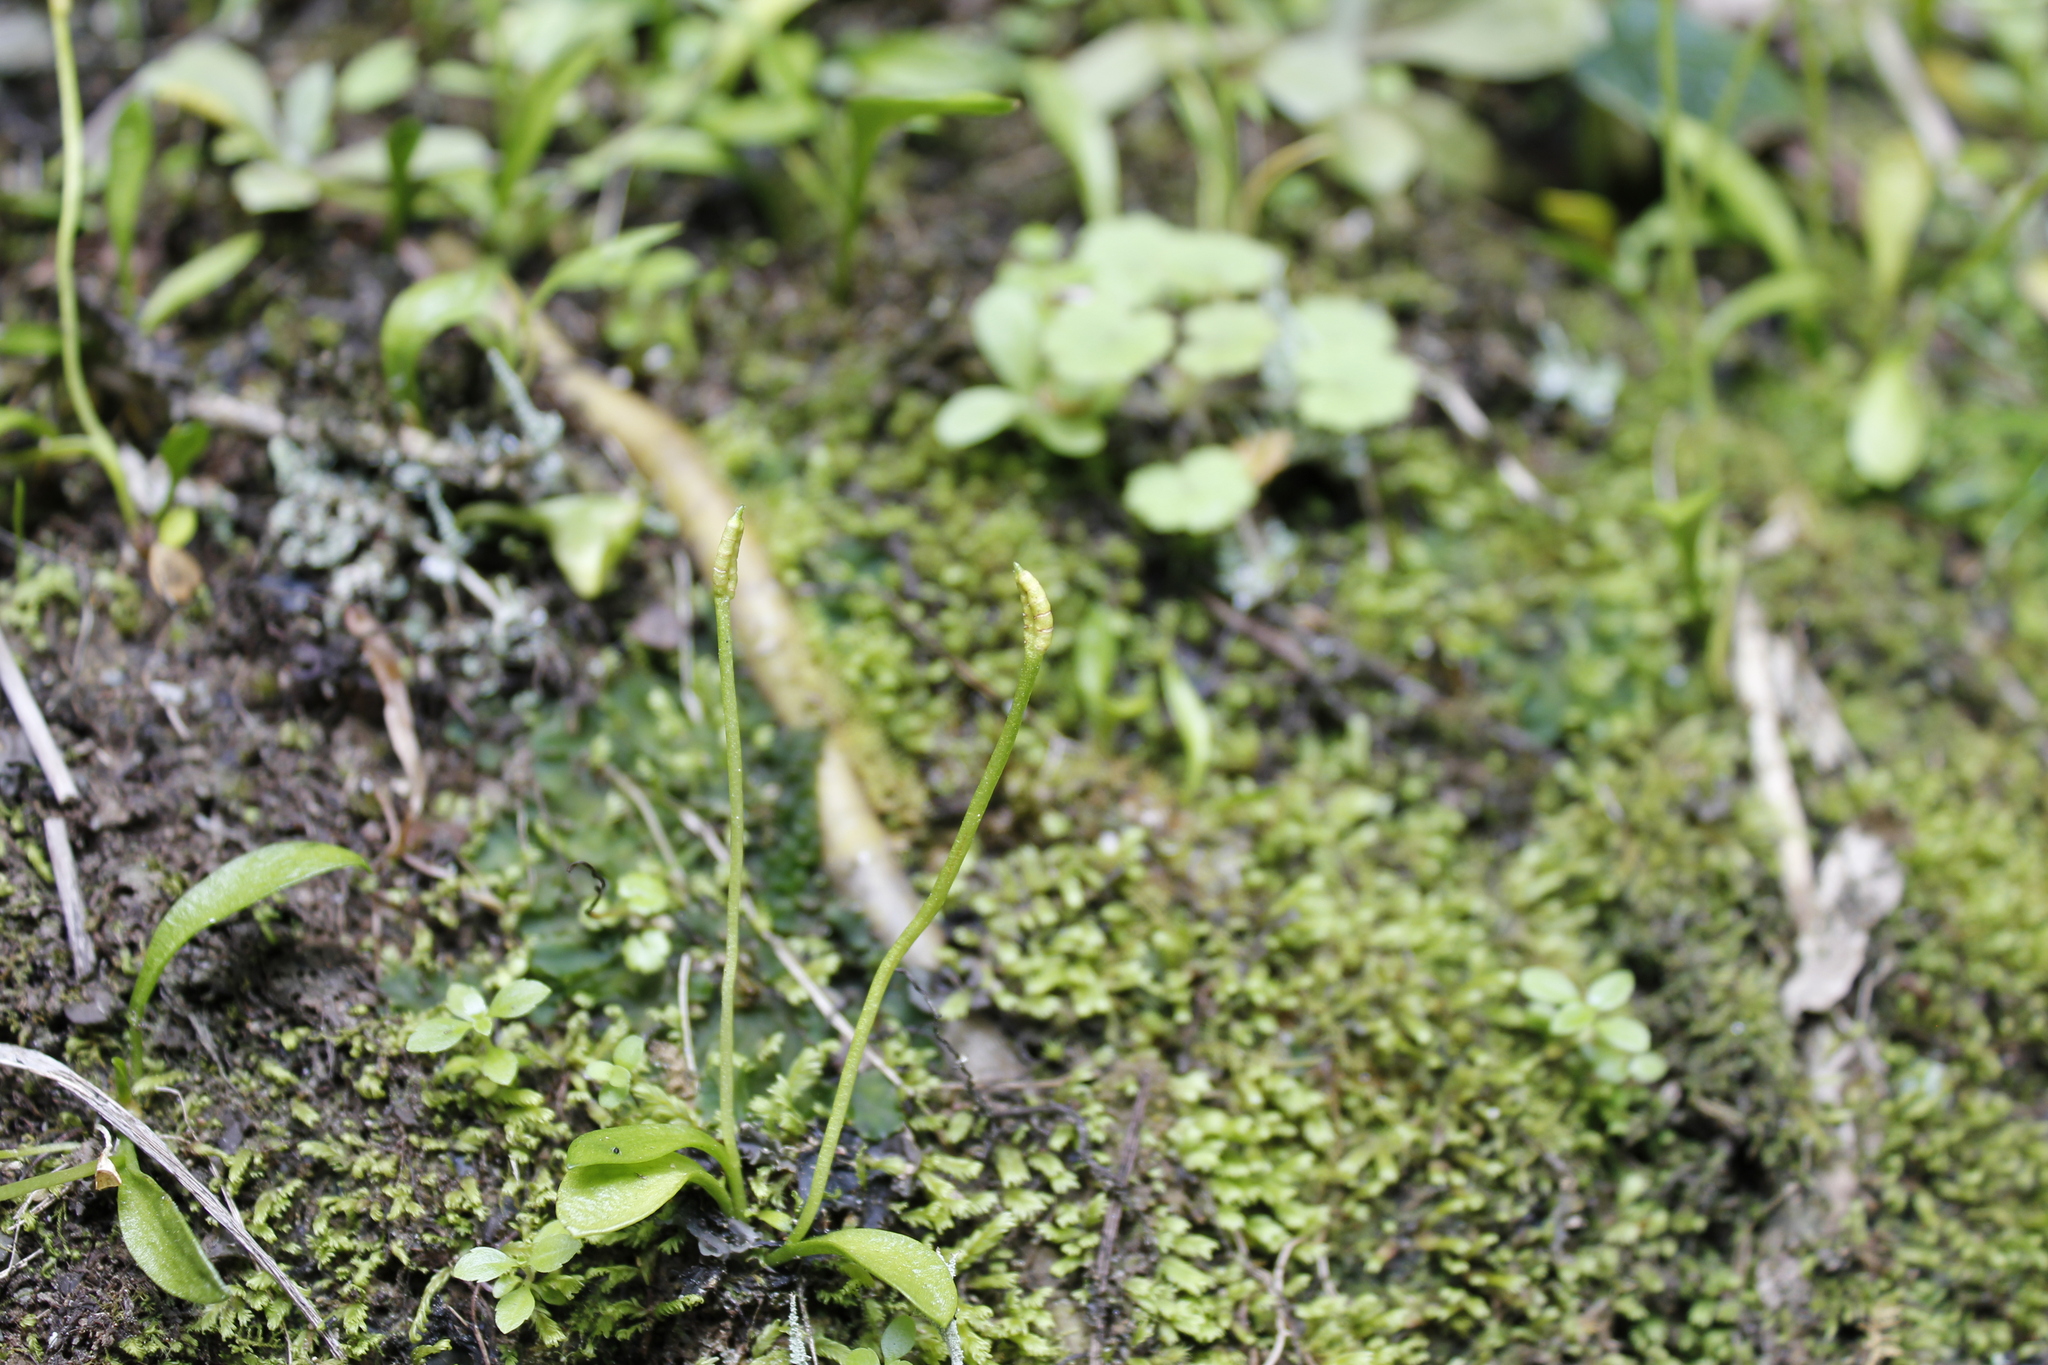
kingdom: Plantae
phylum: Tracheophyta
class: Polypodiopsida
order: Ophioglossales
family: Ophioglossaceae
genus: Ophioglossum
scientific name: Ophioglossum coriaceum
